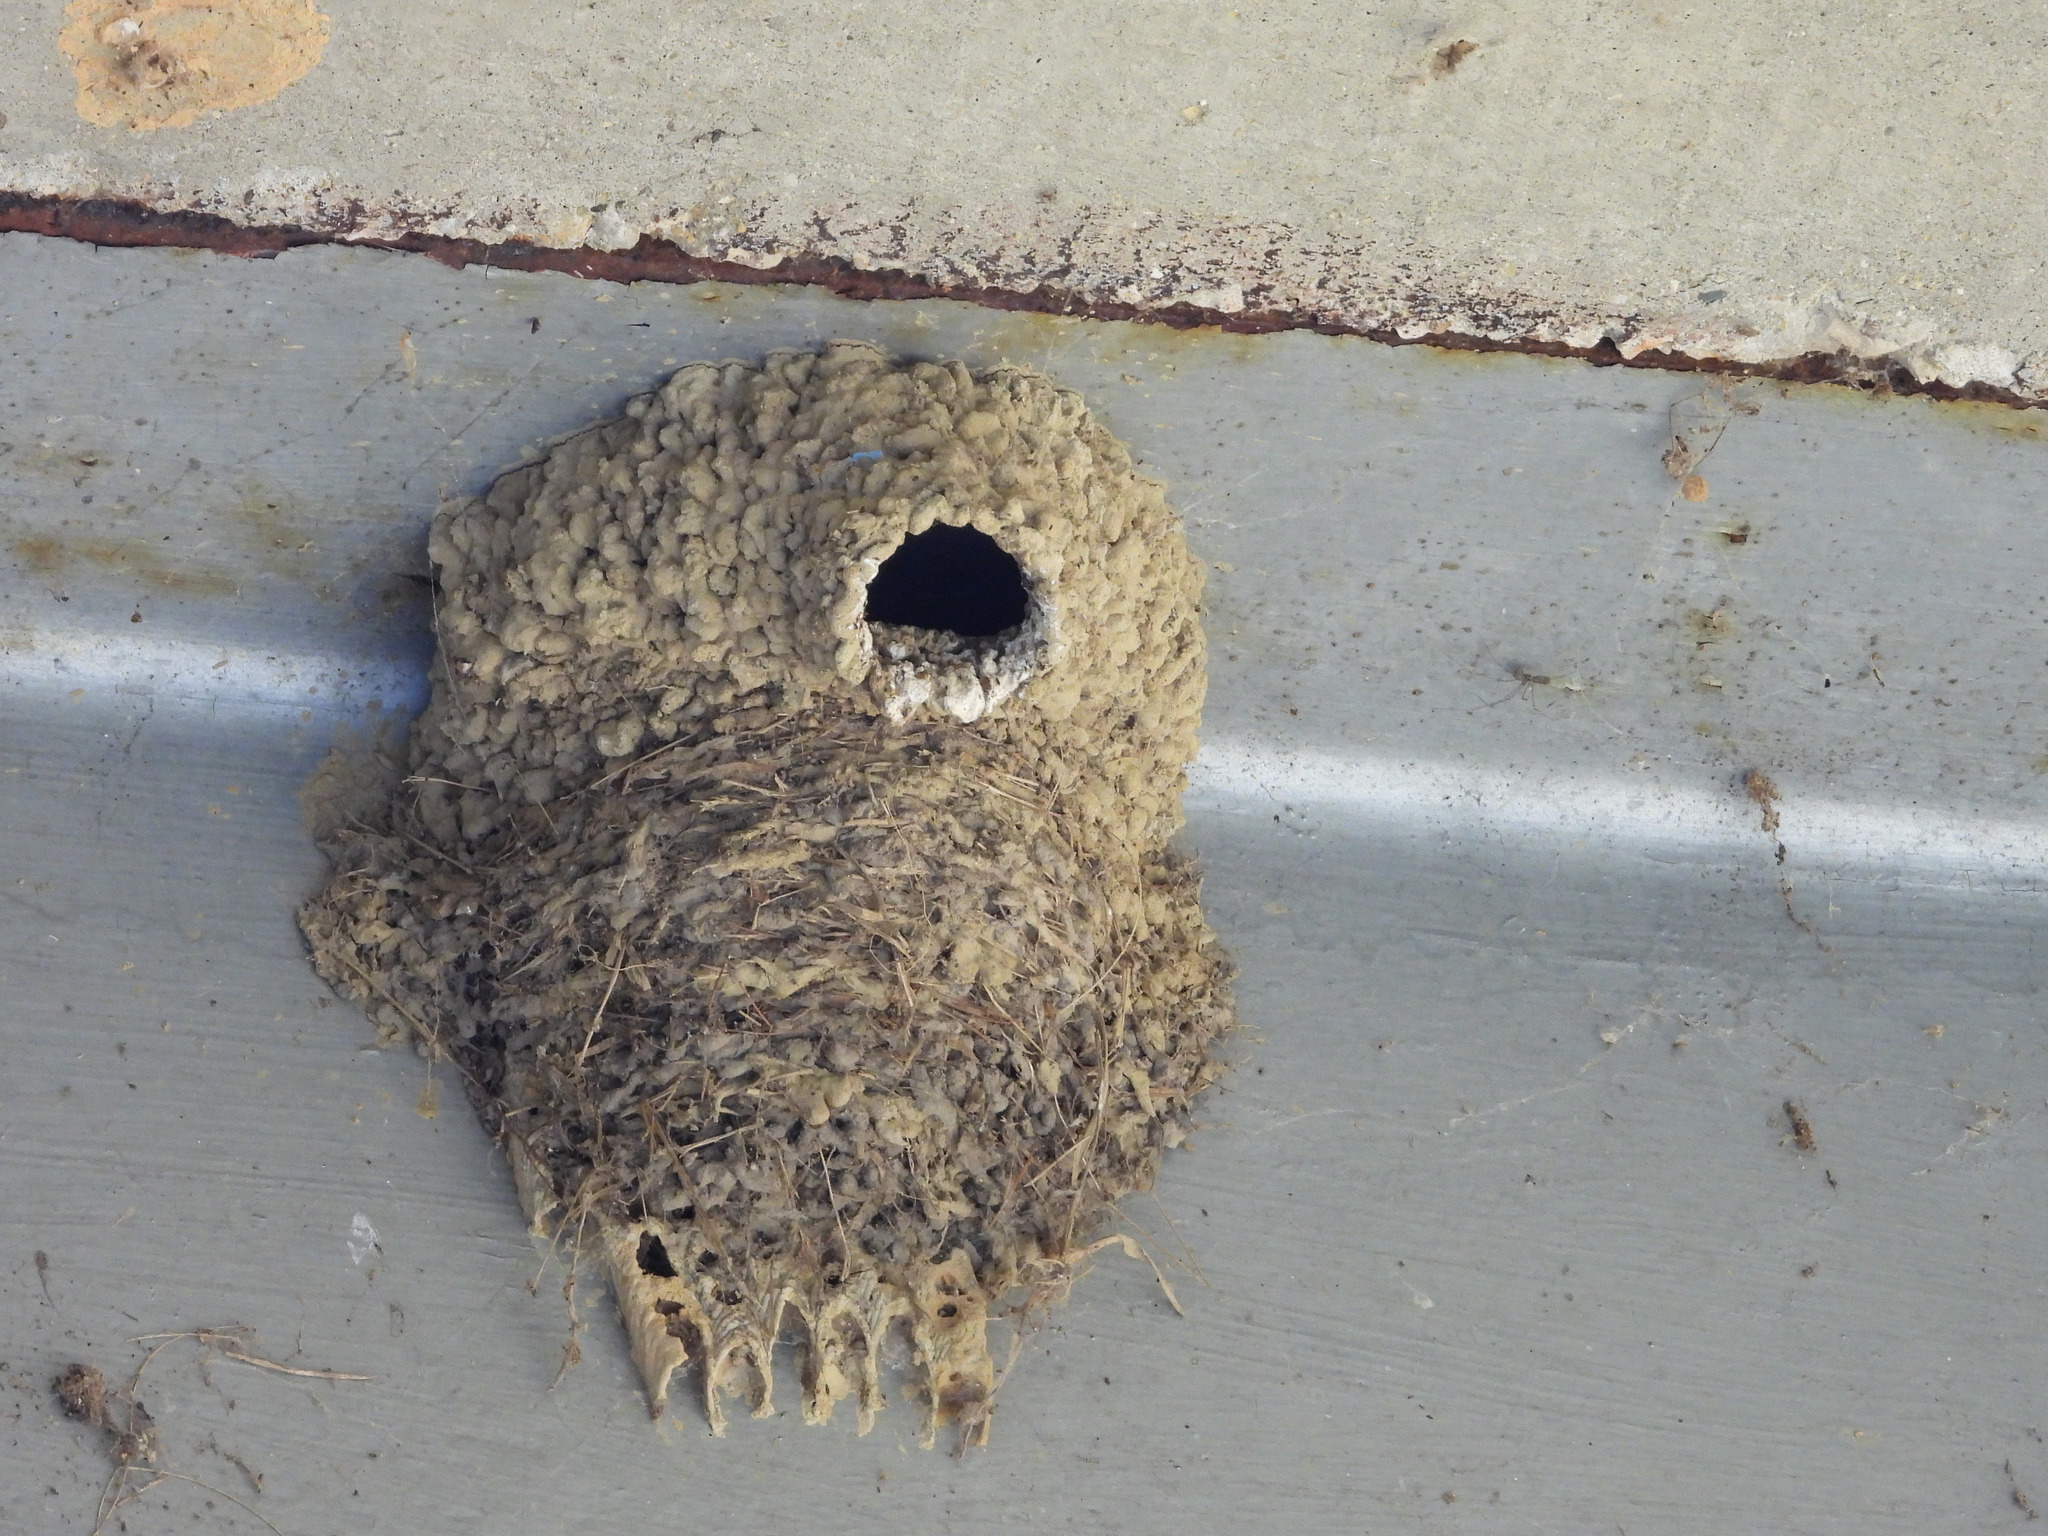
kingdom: Animalia
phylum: Chordata
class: Aves
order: Passeriformes
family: Hirundinidae
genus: Petrochelidon
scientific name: Petrochelidon pyrrhonota
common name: American cliff swallow
